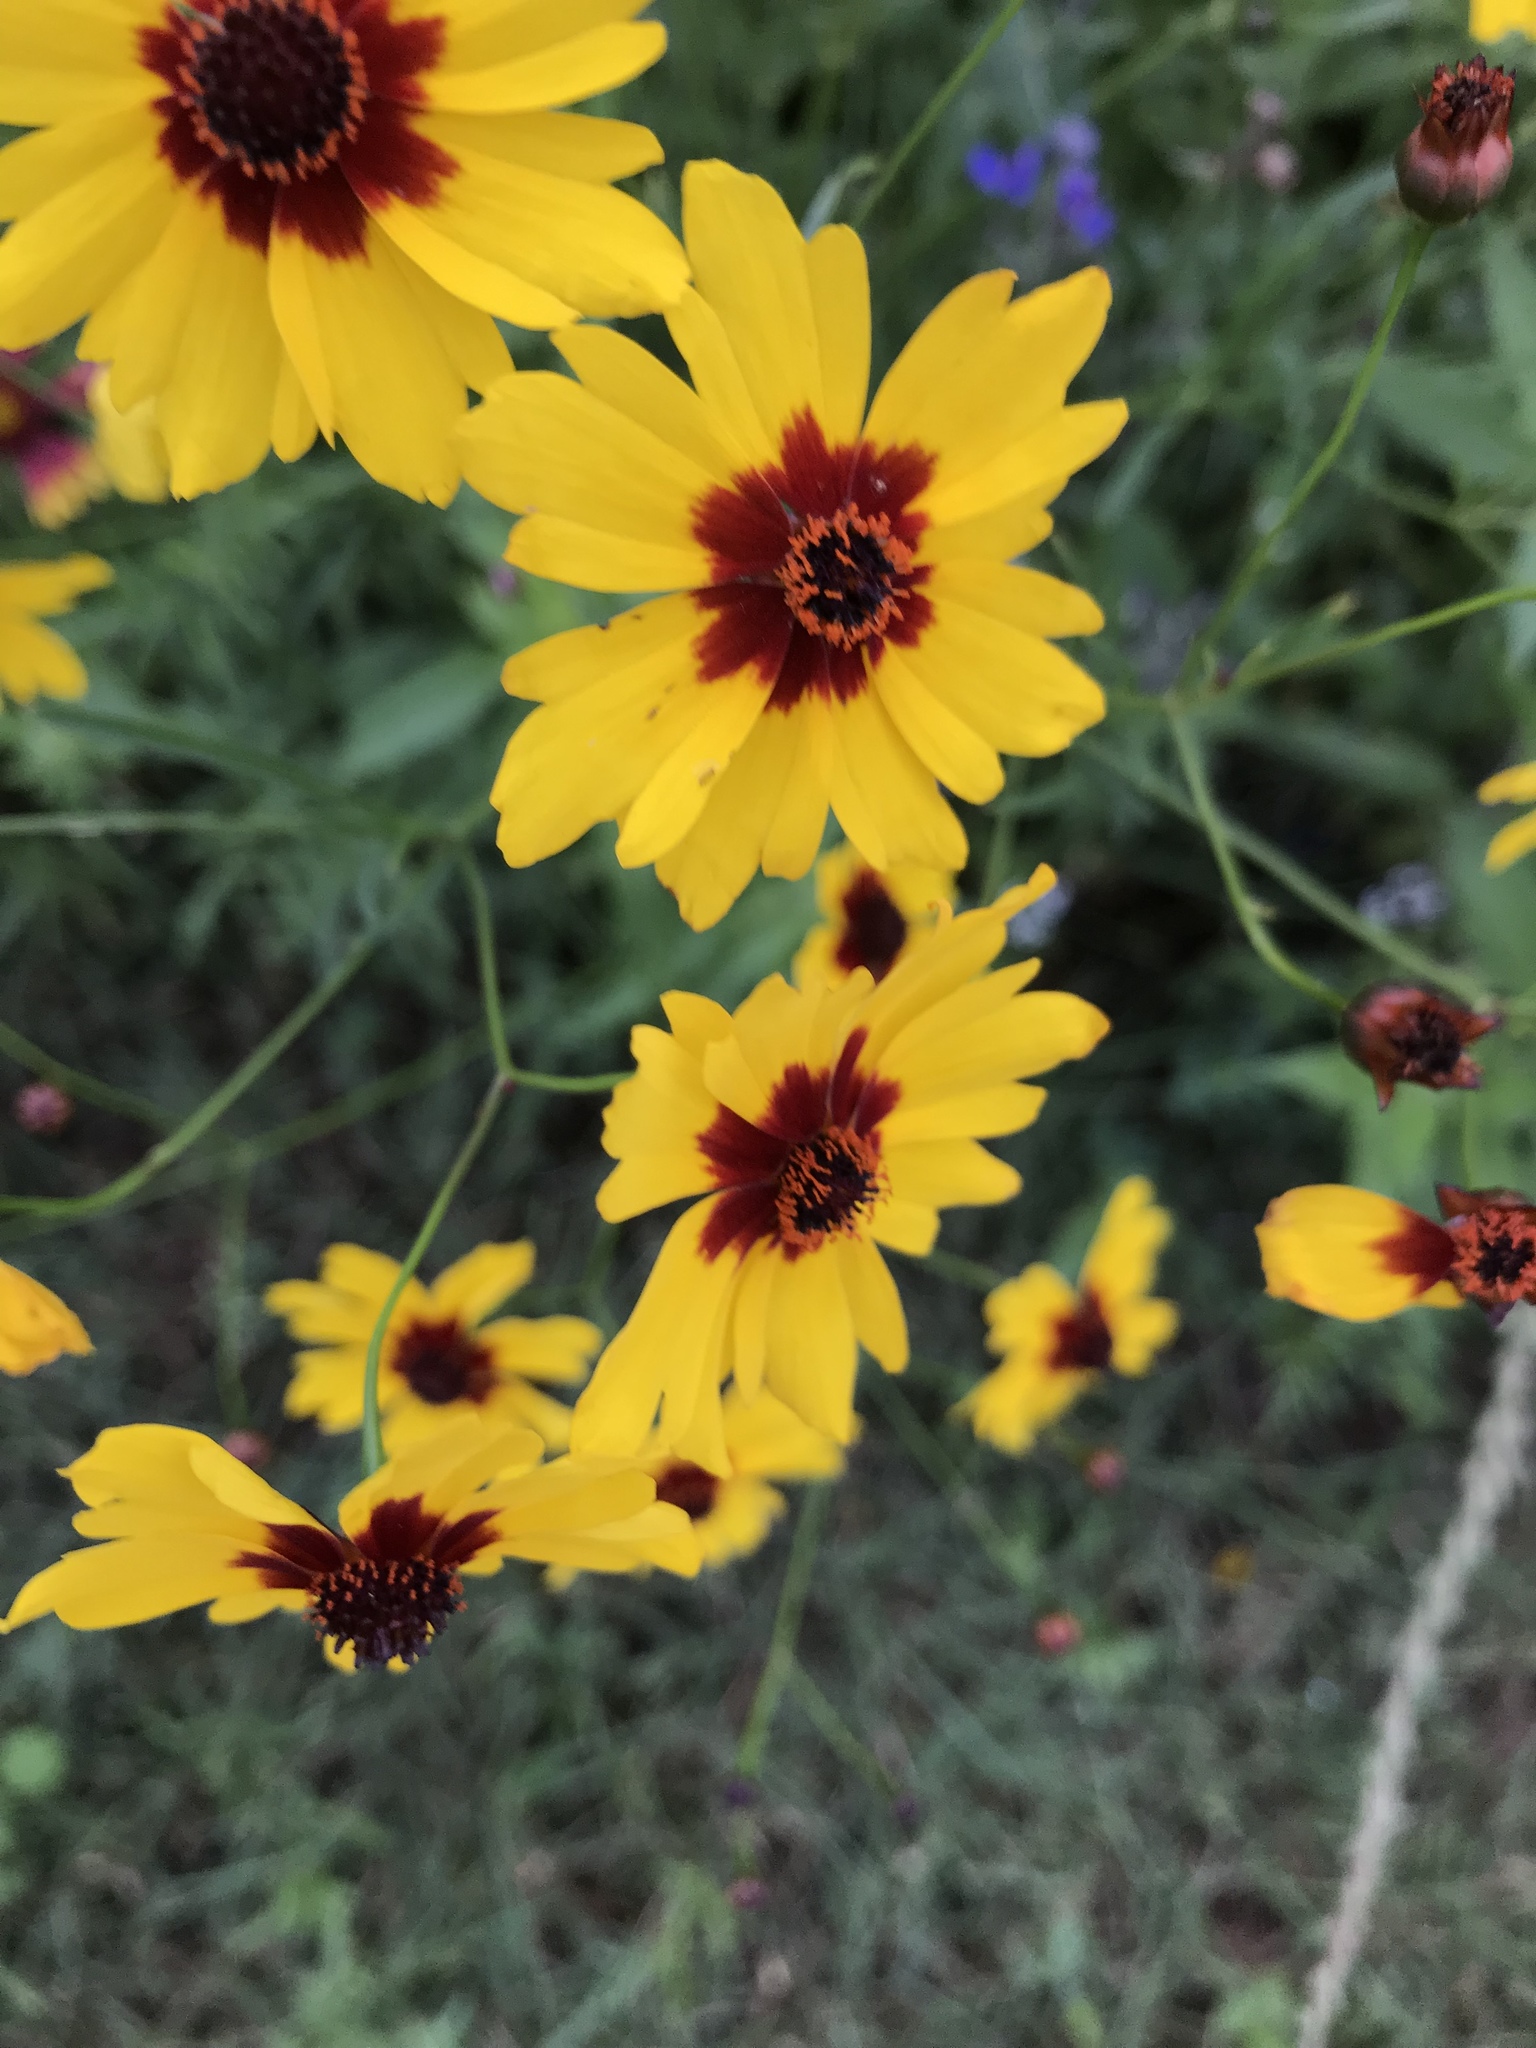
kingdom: Plantae
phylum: Tracheophyta
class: Magnoliopsida
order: Asterales
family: Asteraceae
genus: Coreopsis
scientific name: Coreopsis tinctoria
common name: Garden tickseed
